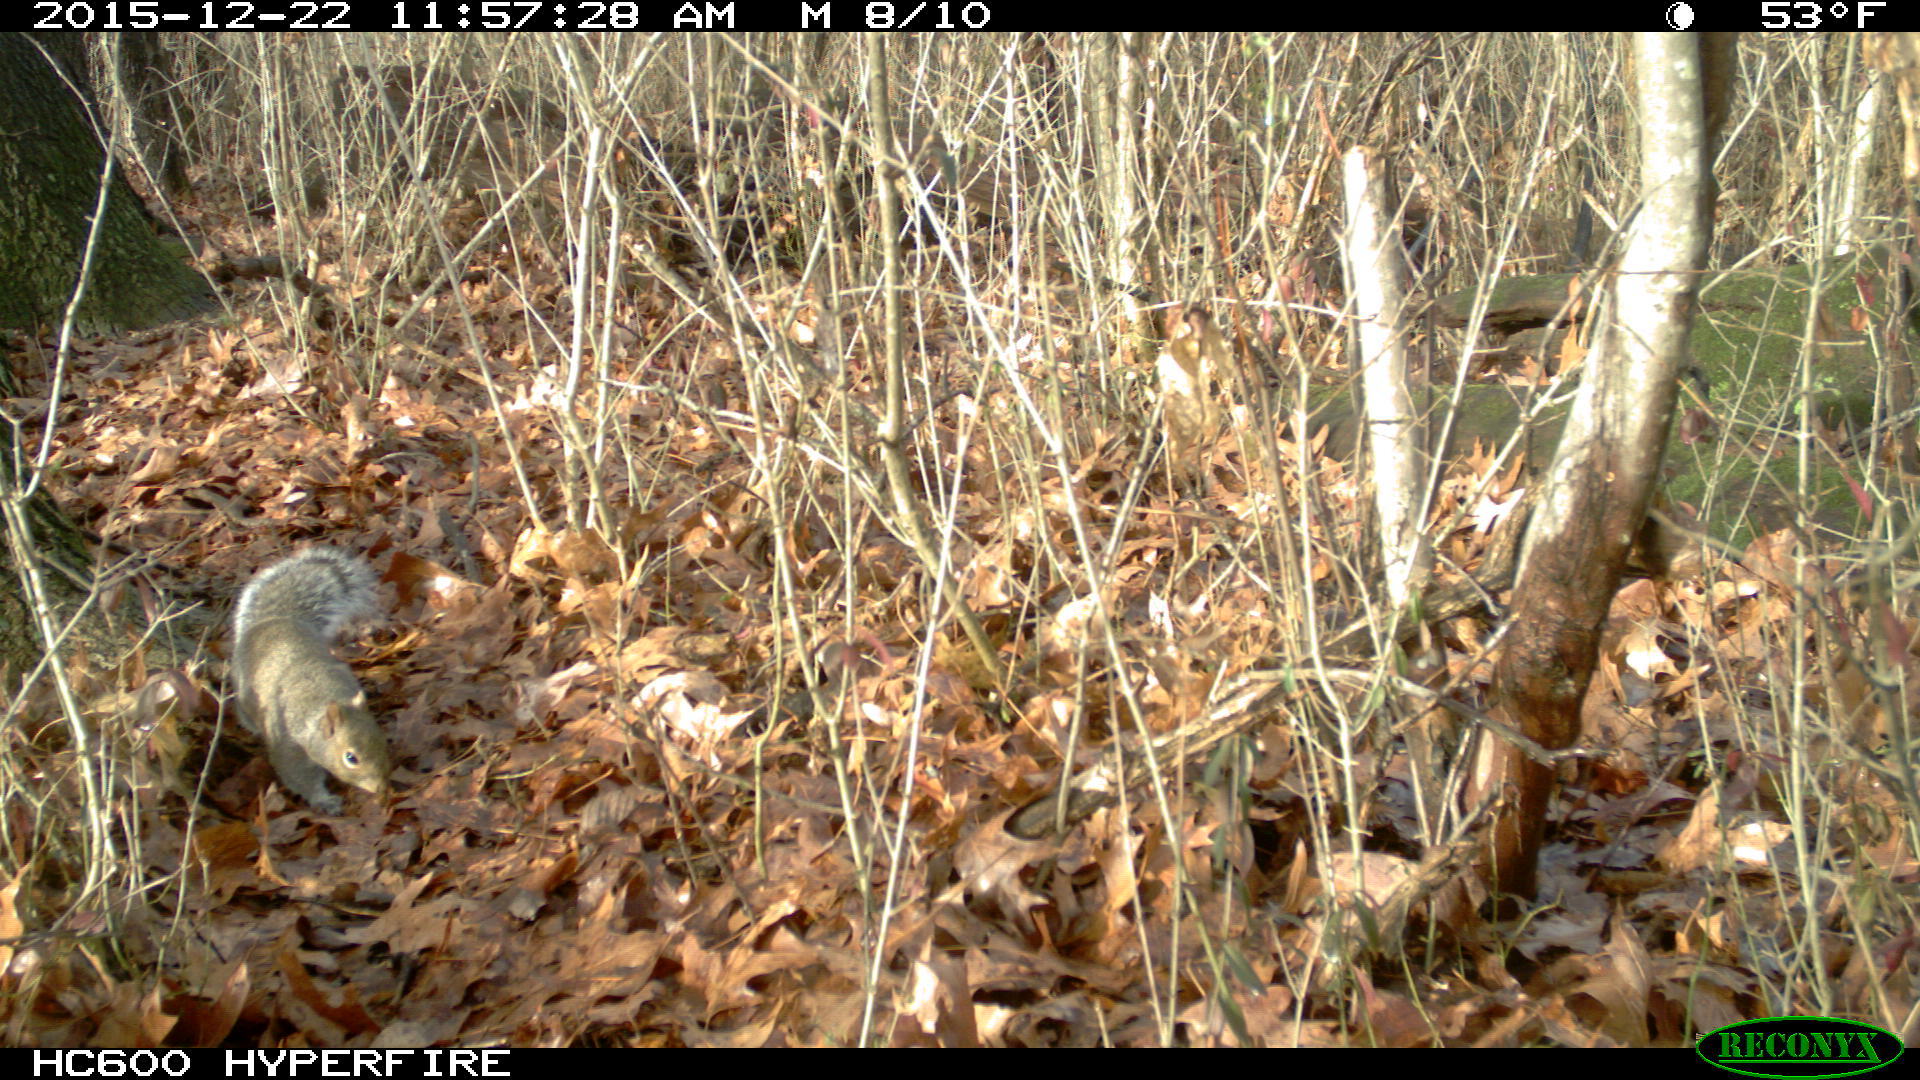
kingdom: Animalia
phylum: Chordata
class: Mammalia
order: Rodentia
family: Sciuridae
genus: Sciurus
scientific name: Sciurus carolinensis
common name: Eastern gray squirrel
